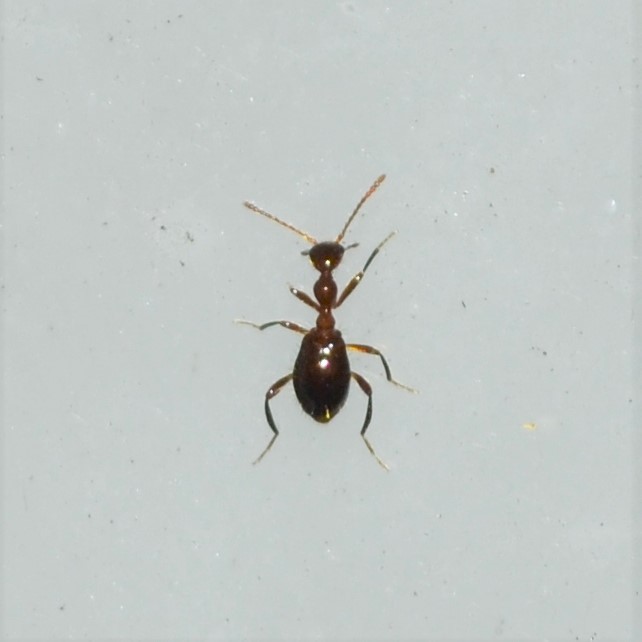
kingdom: Animalia
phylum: Arthropoda
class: Insecta
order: Coleoptera
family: Anthicidae
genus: Acanthinus
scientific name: Acanthinus
